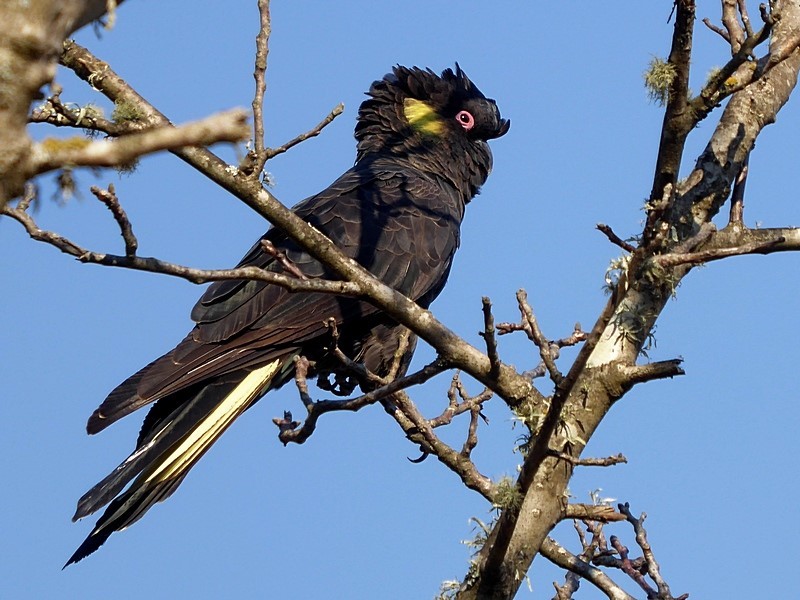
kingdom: Animalia
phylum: Chordata
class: Aves
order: Psittaciformes
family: Cacatuidae
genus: Zanda
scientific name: Zanda funerea
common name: Yellow-tailed black-cockatoo
